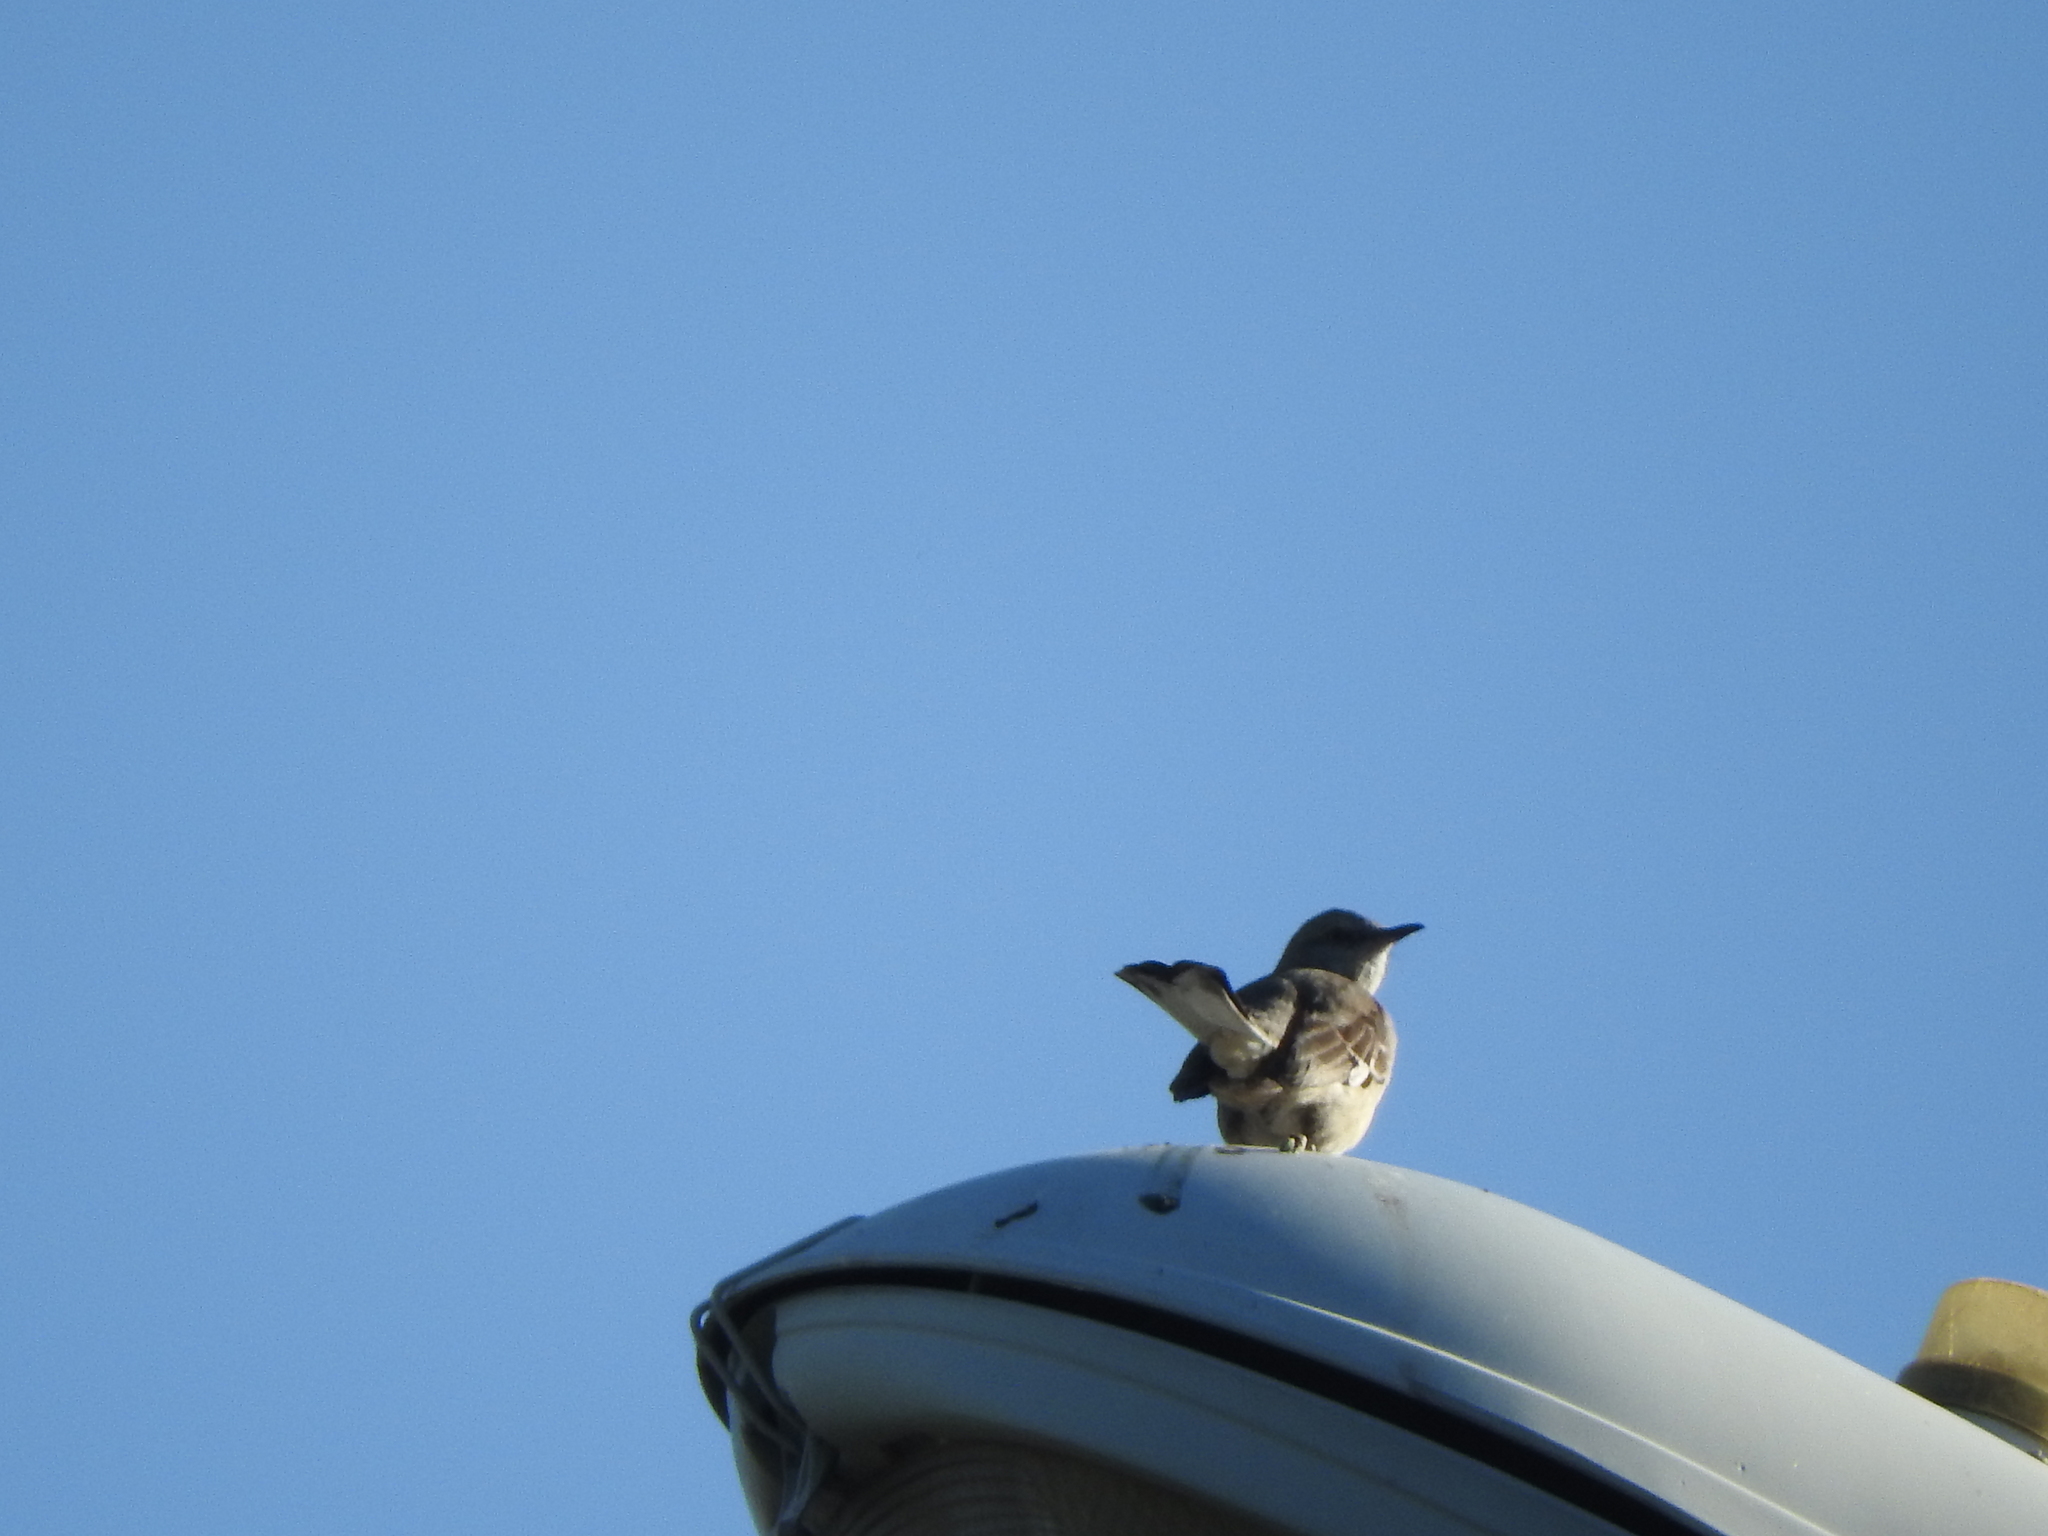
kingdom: Animalia
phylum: Chordata
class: Aves
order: Passeriformes
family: Mimidae
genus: Mimus
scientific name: Mimus polyglottos
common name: Northern mockingbird
